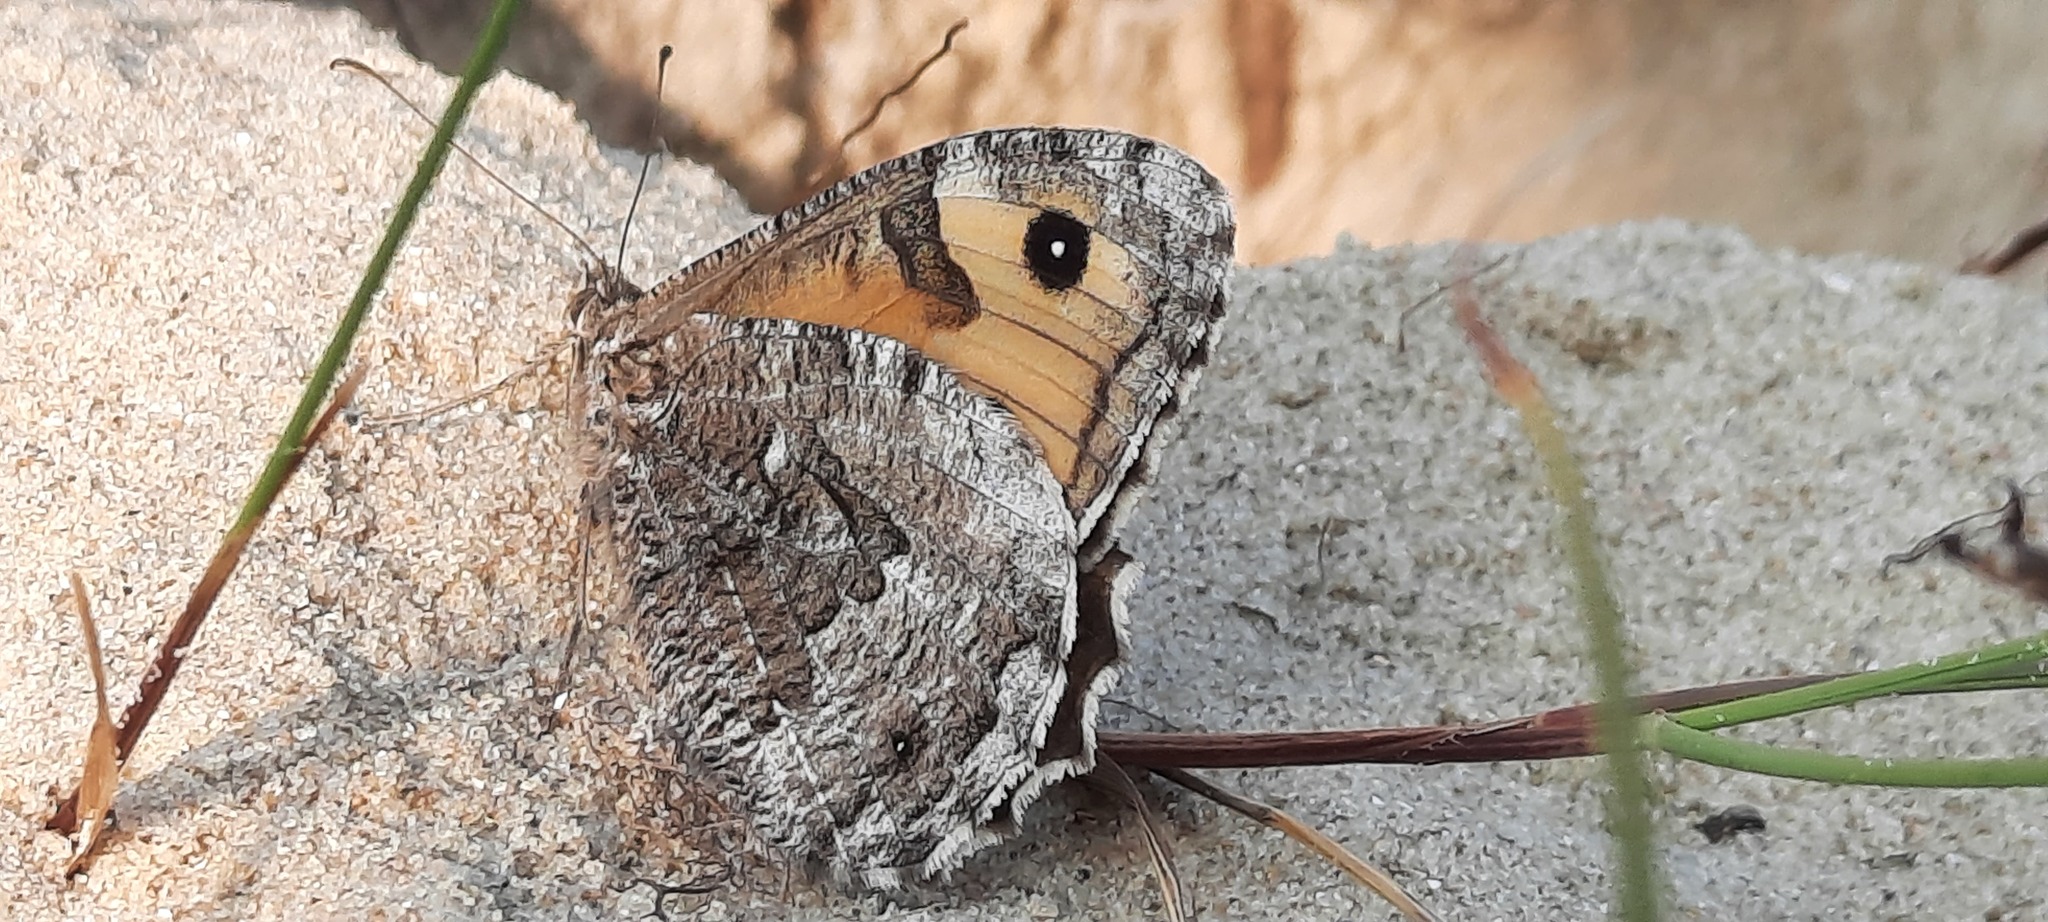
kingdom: Animalia
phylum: Arthropoda
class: Insecta
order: Lepidoptera
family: Nymphalidae
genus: Hipparchia
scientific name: Hipparchia semele
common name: Grayling
